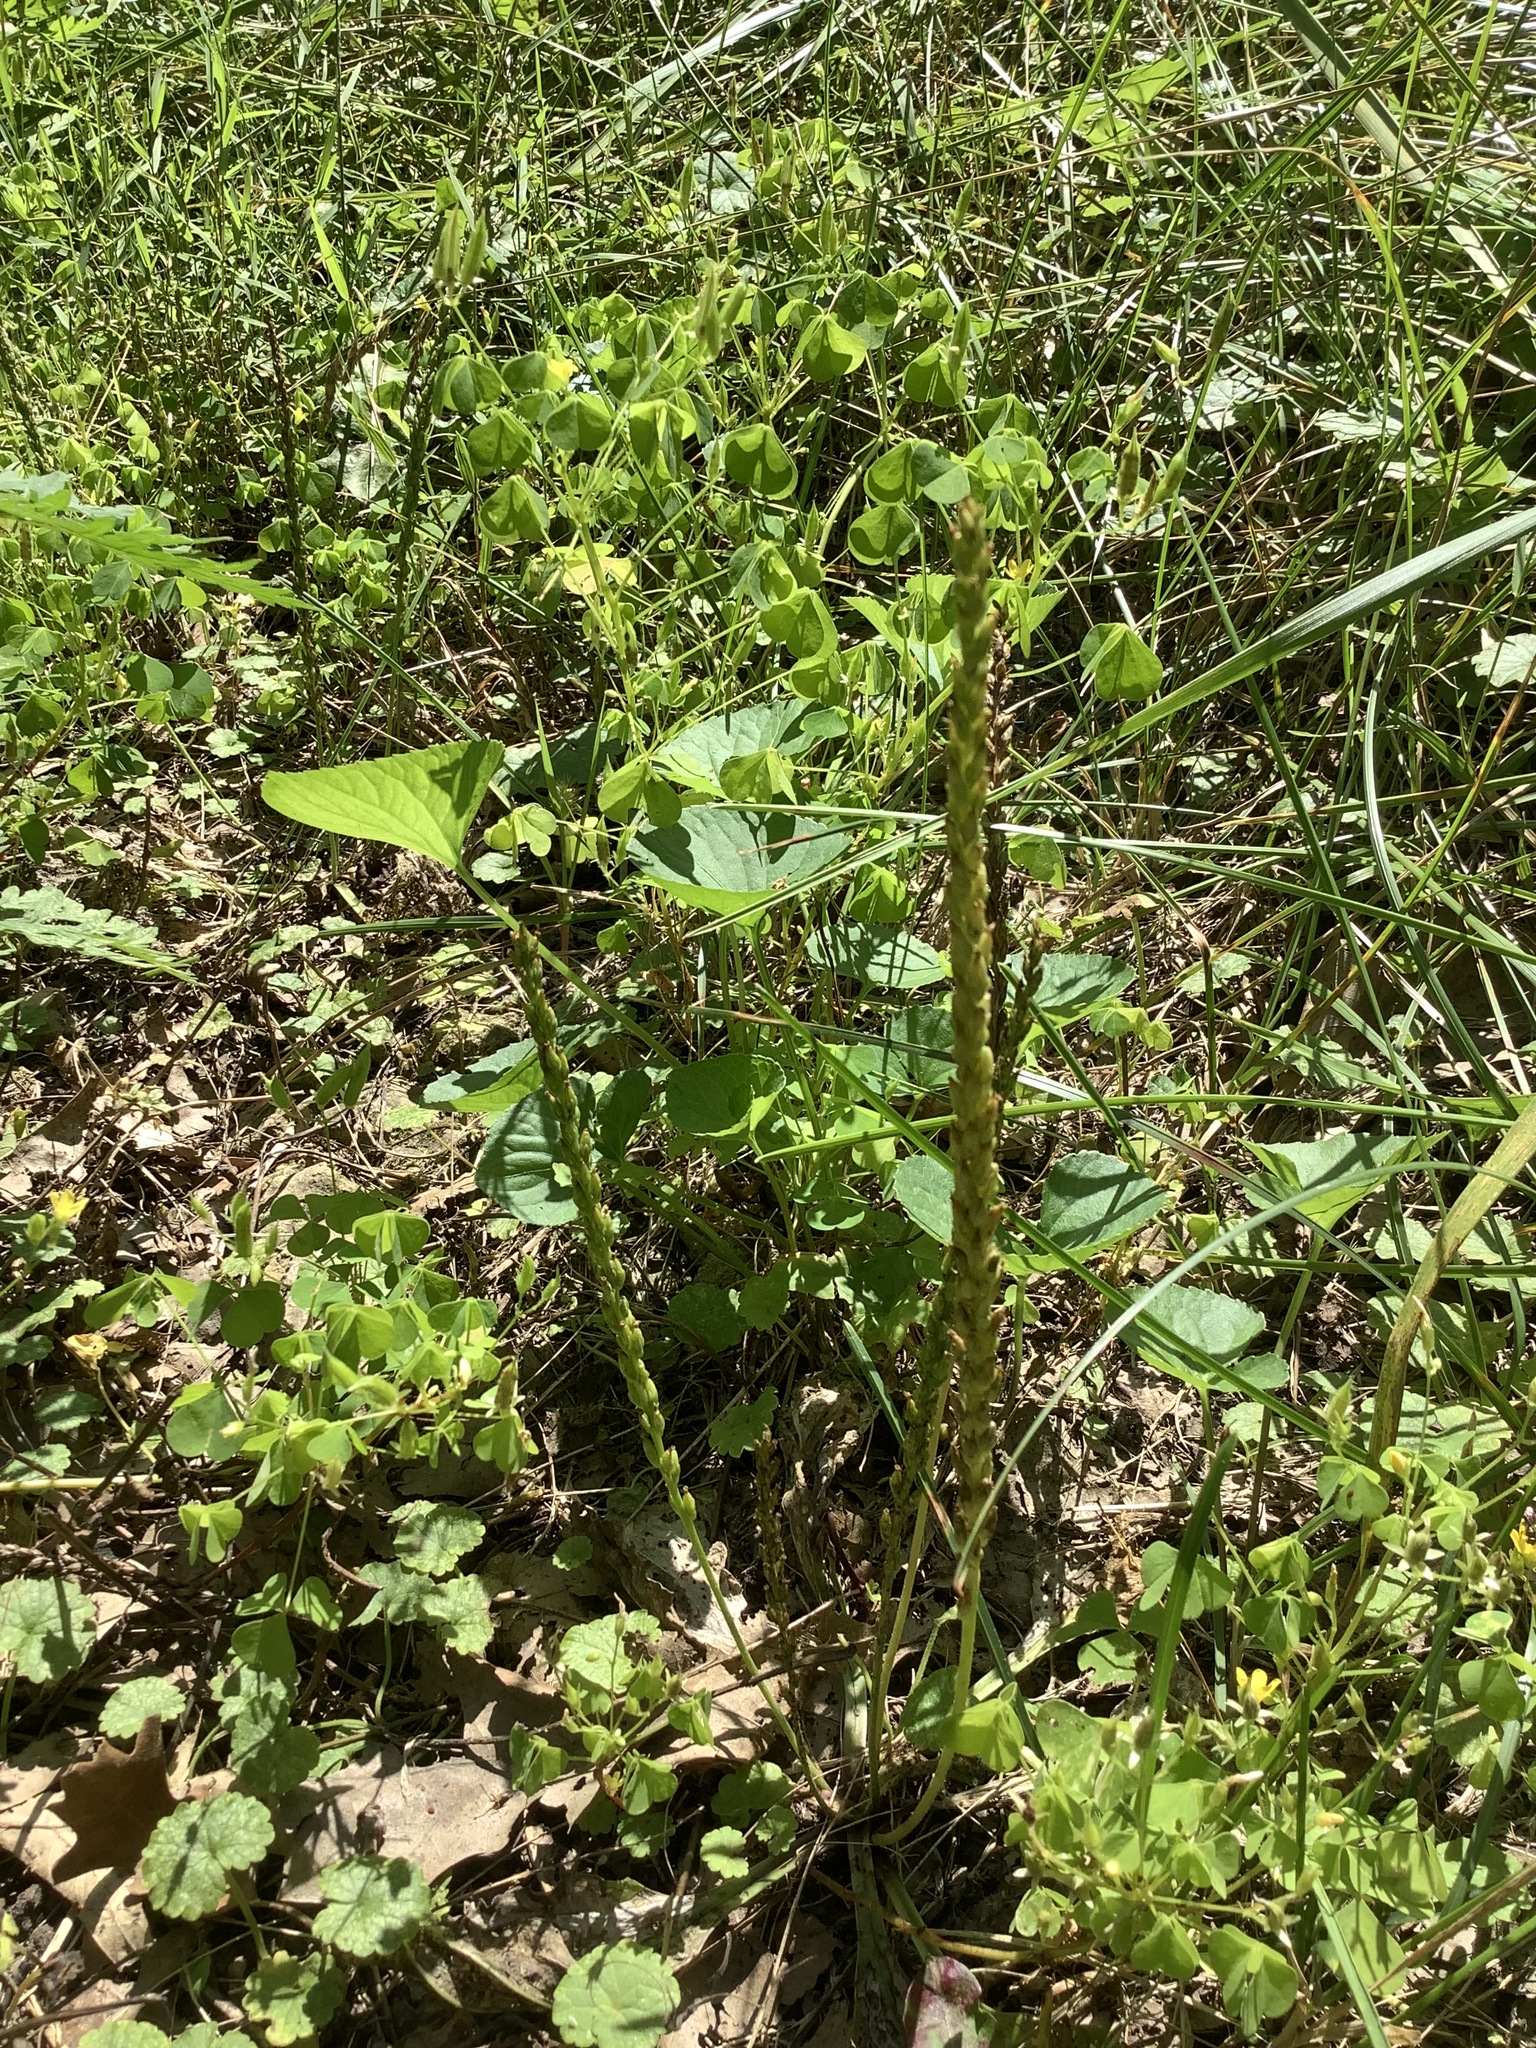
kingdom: Plantae
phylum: Tracheophyta
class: Magnoliopsida
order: Lamiales
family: Plantaginaceae
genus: Plantago
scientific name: Plantago rugelii
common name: American plantain
